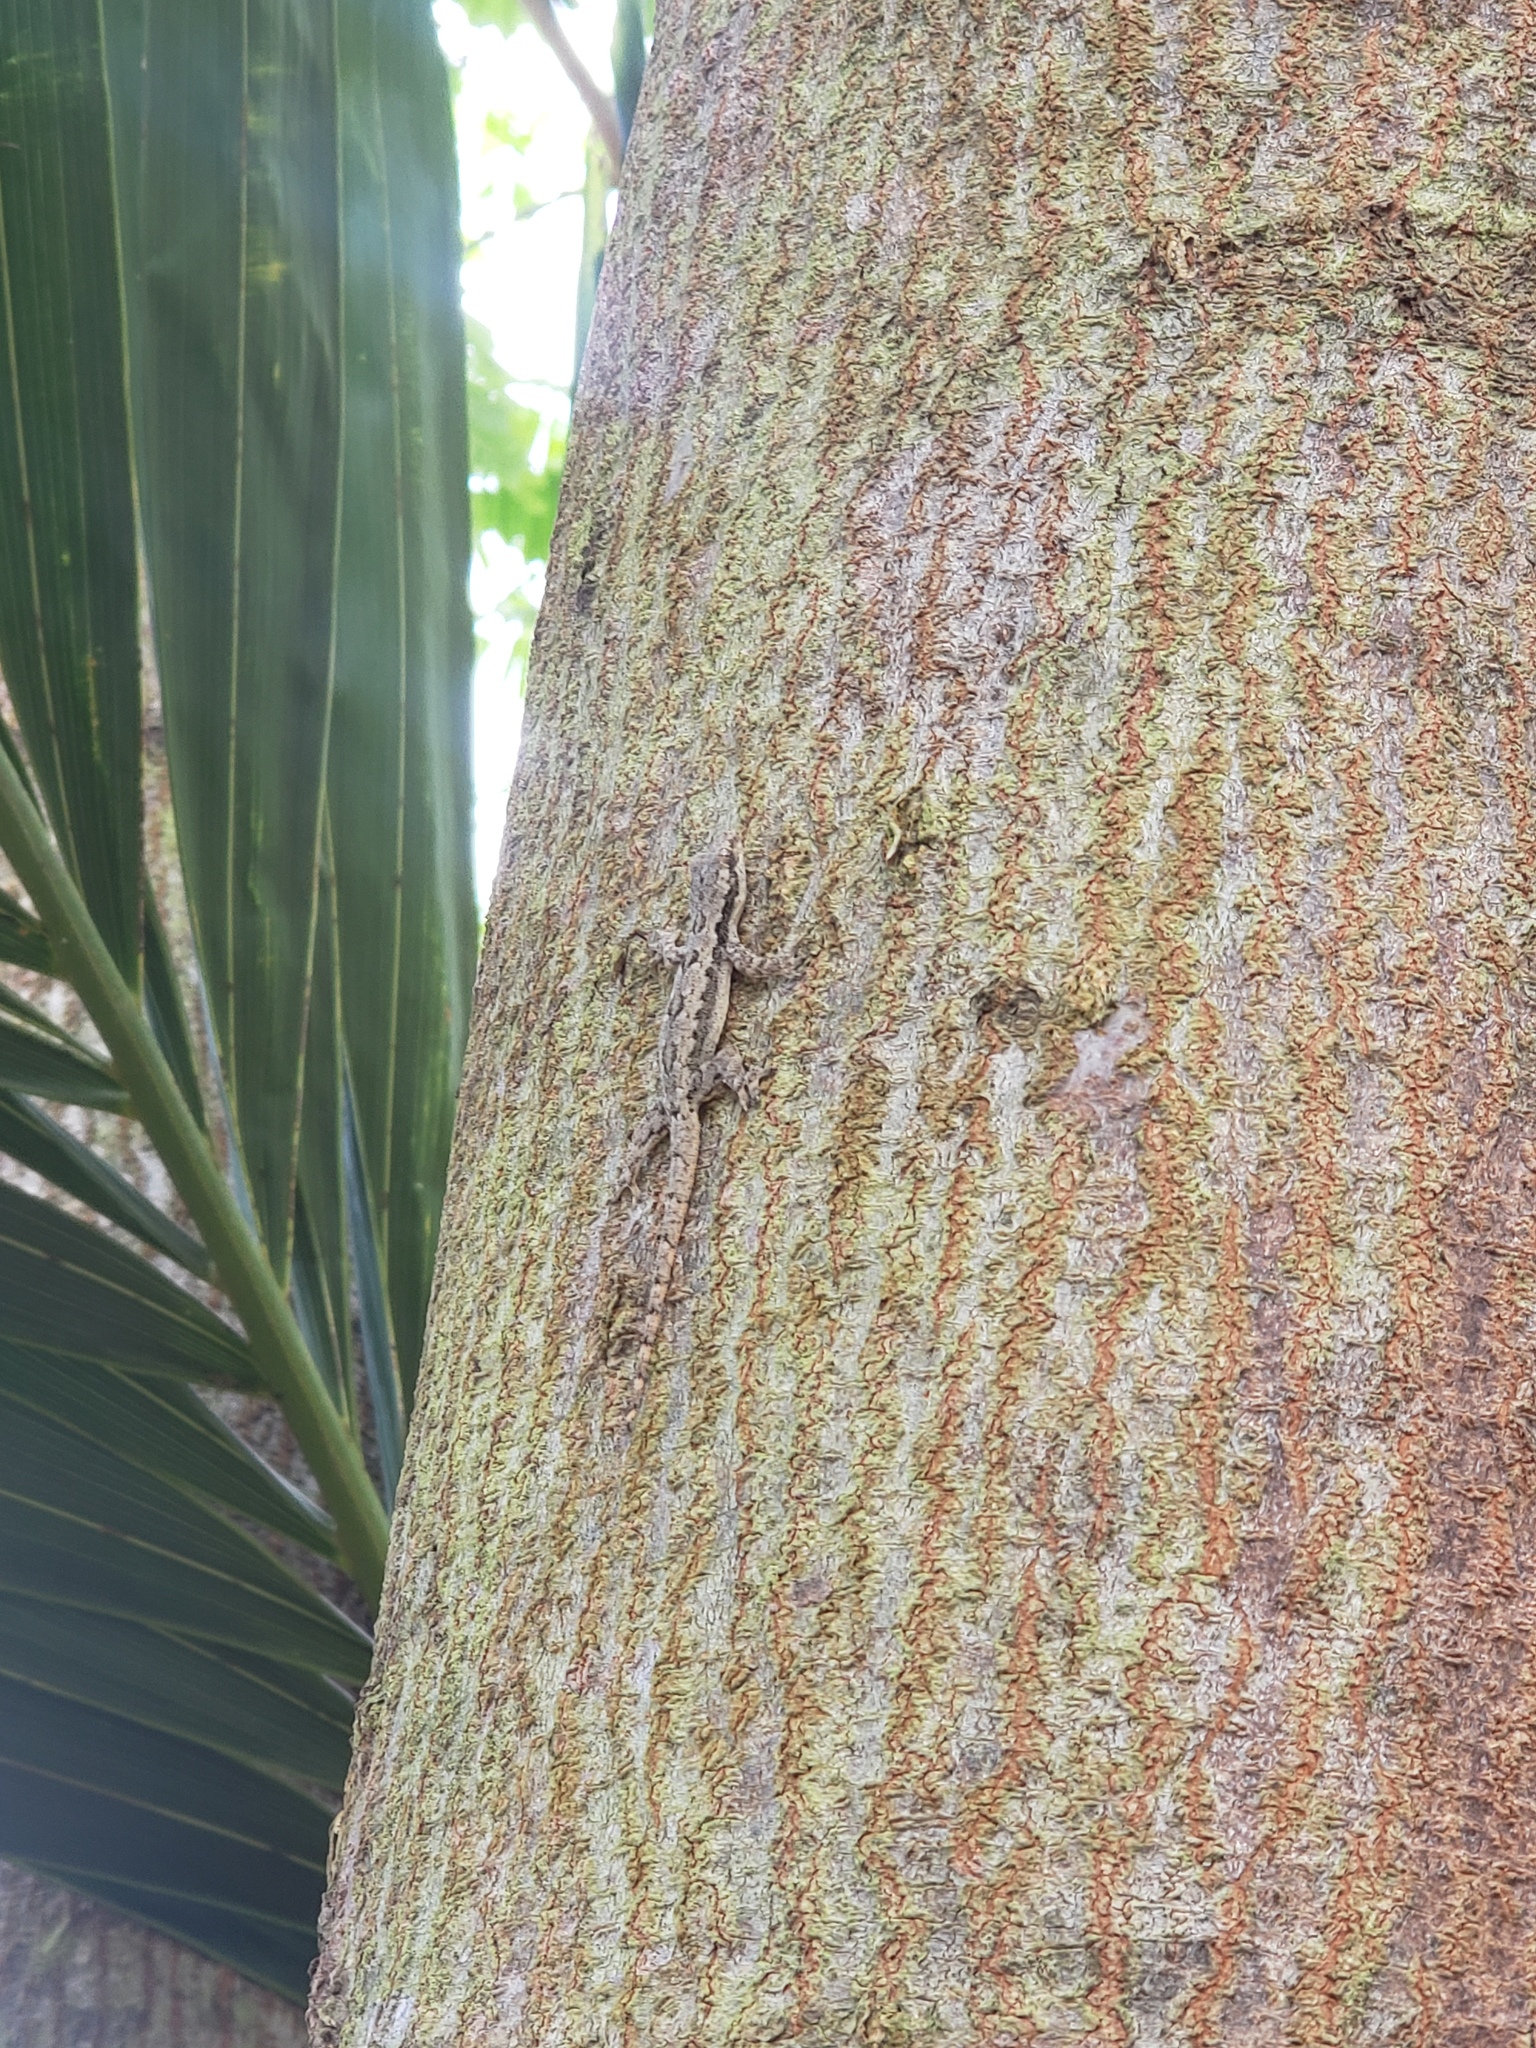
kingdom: Animalia
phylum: Chordata
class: Squamata
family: Gekkonidae
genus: Hemidactylus
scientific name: Hemidactylus platyurus
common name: Flat-tailed house gecko
